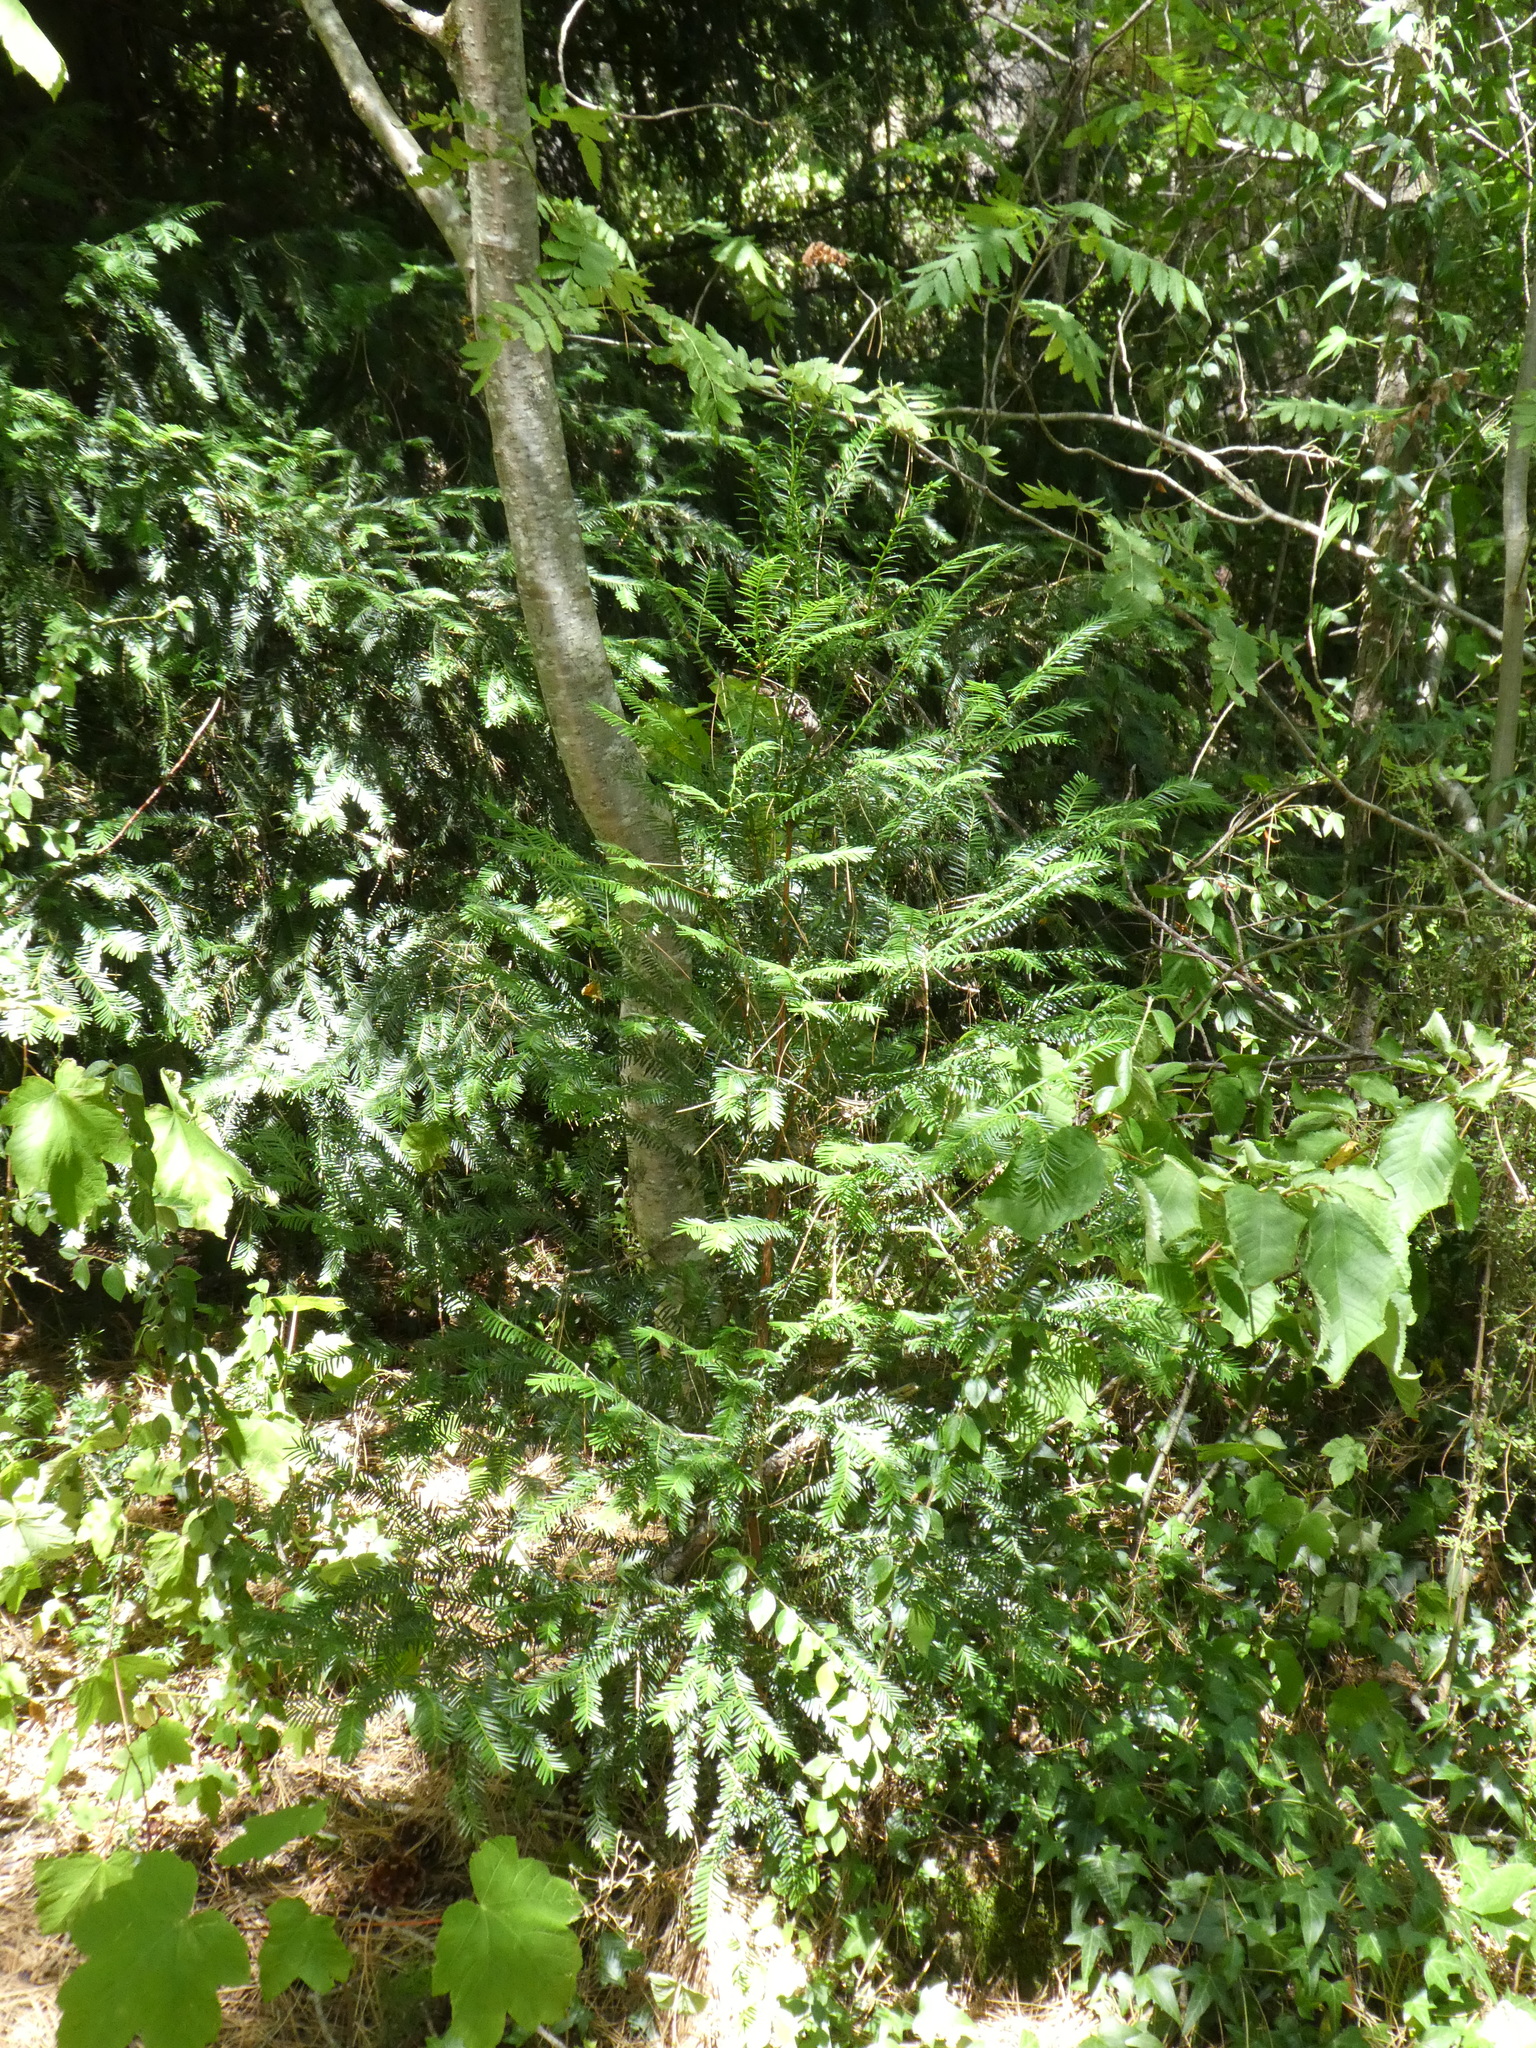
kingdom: Plantae
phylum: Tracheophyta
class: Pinopsida
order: Pinales
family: Cupressaceae
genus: Sequoia
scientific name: Sequoia sempervirens
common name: Coast redwood
